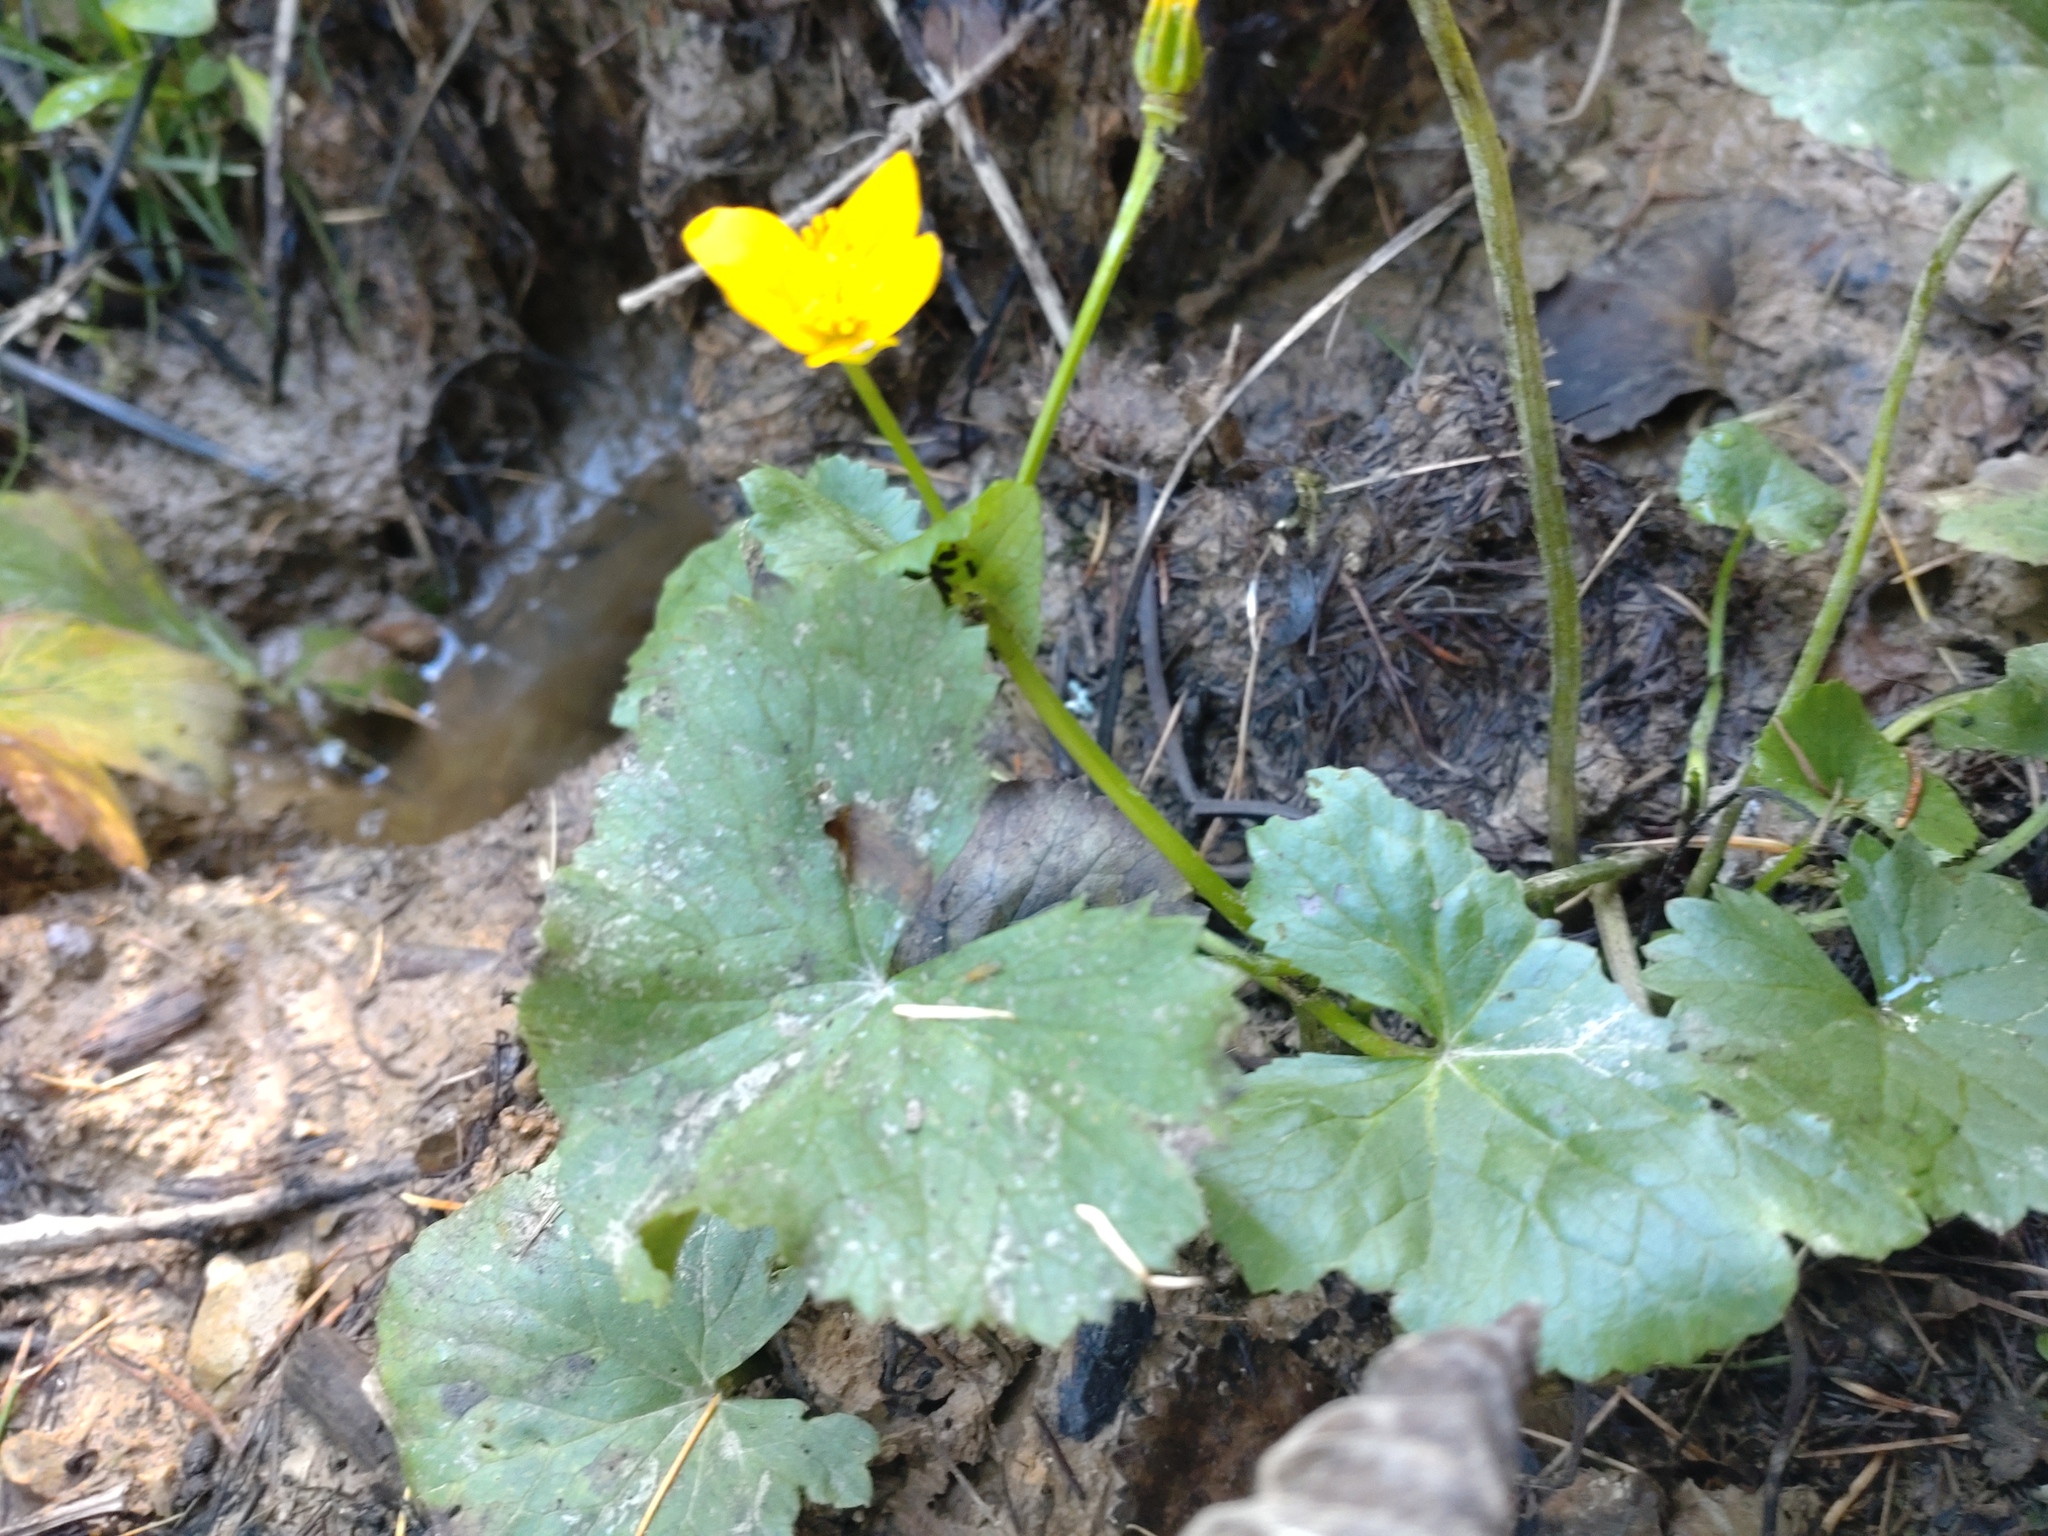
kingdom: Plantae
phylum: Tracheophyta
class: Magnoliopsida
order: Ranunculales
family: Ranunculaceae
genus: Caltha
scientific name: Caltha palustris
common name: Marsh marigold
